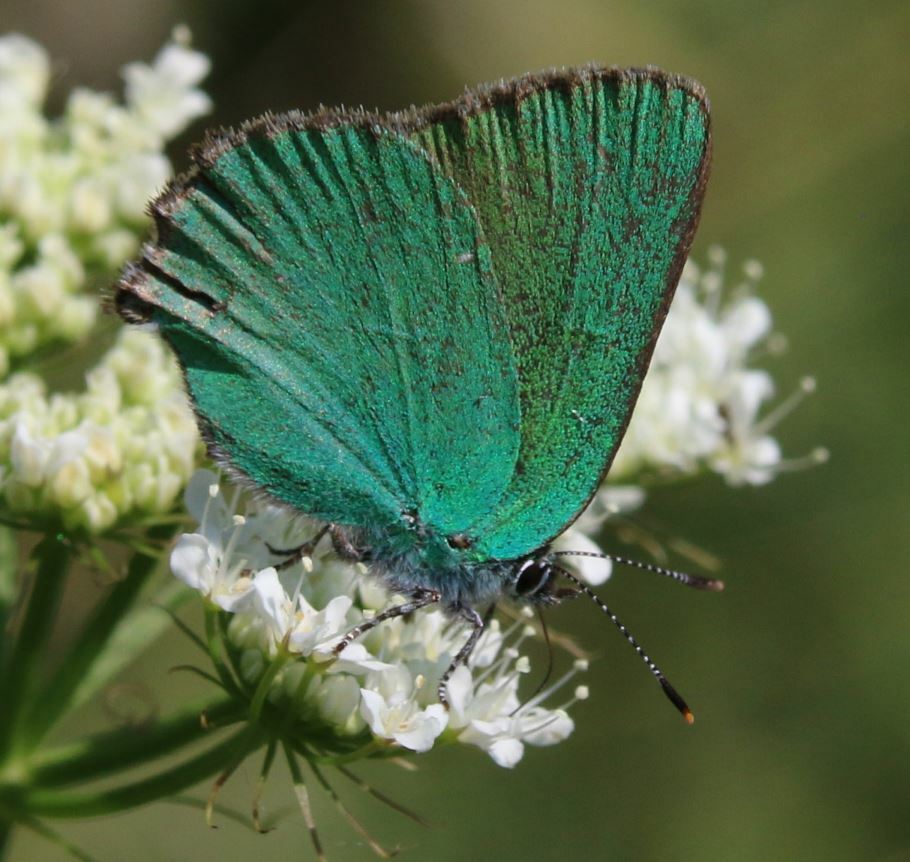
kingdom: Animalia
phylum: Arthropoda
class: Insecta
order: Lepidoptera
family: Lycaenidae
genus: Callophrys
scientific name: Callophrys rubi
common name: Green hairstreak
